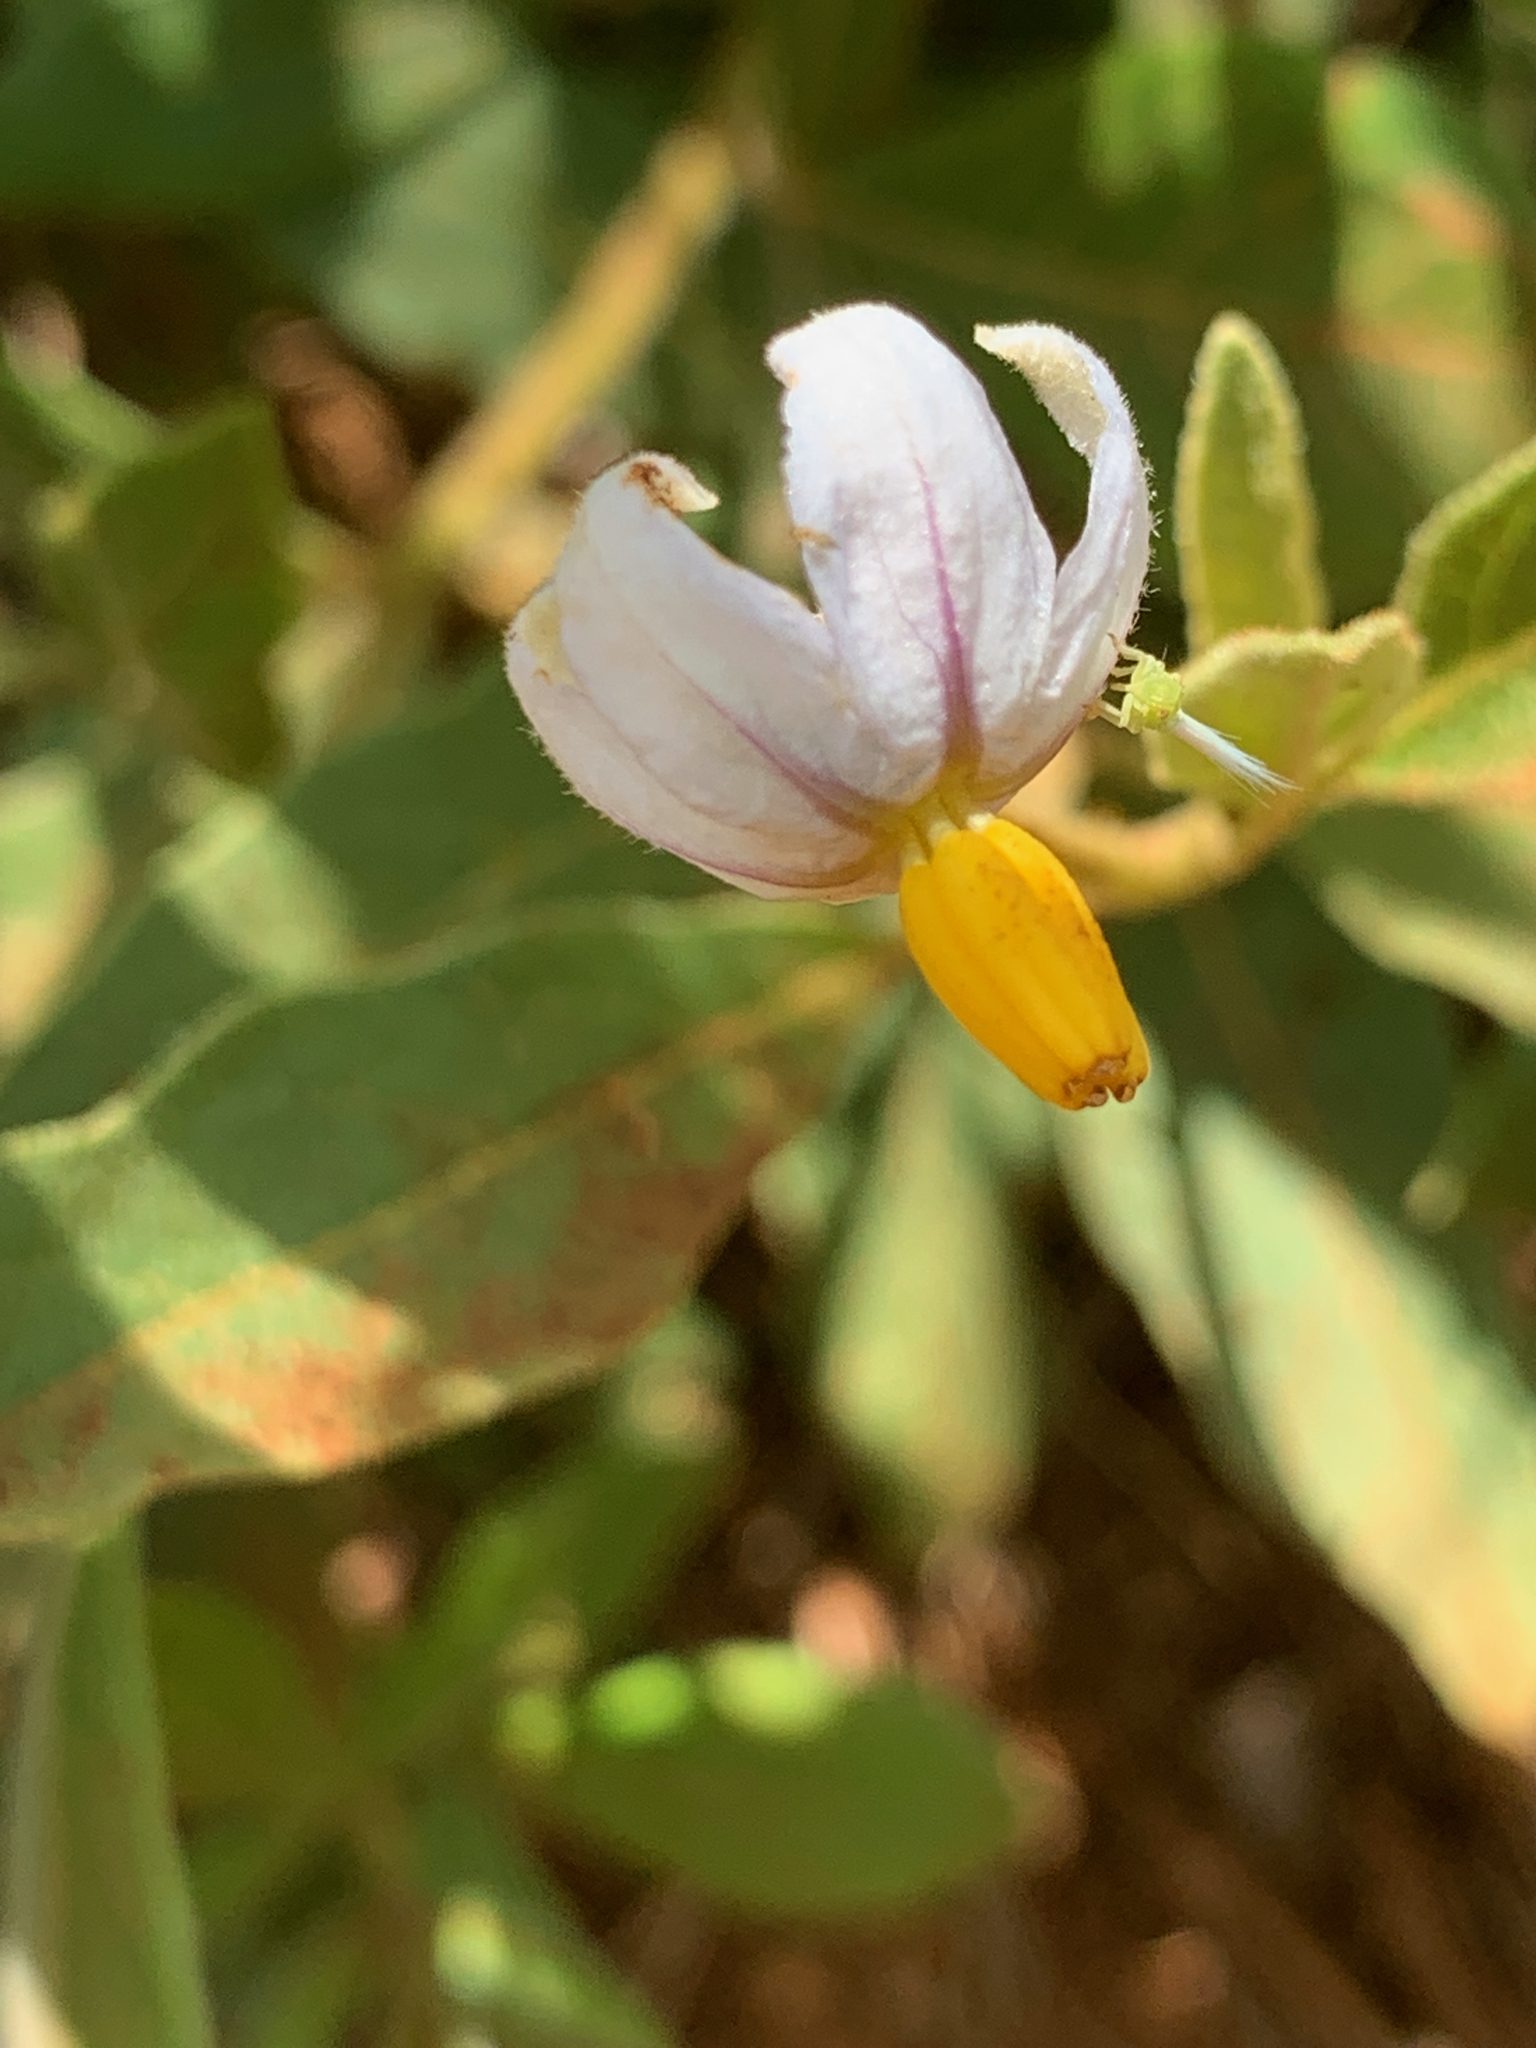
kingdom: Plantae
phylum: Tracheophyta
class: Magnoliopsida
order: Solanales
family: Solanaceae
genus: Solanum
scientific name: Solanum campylacanthum
